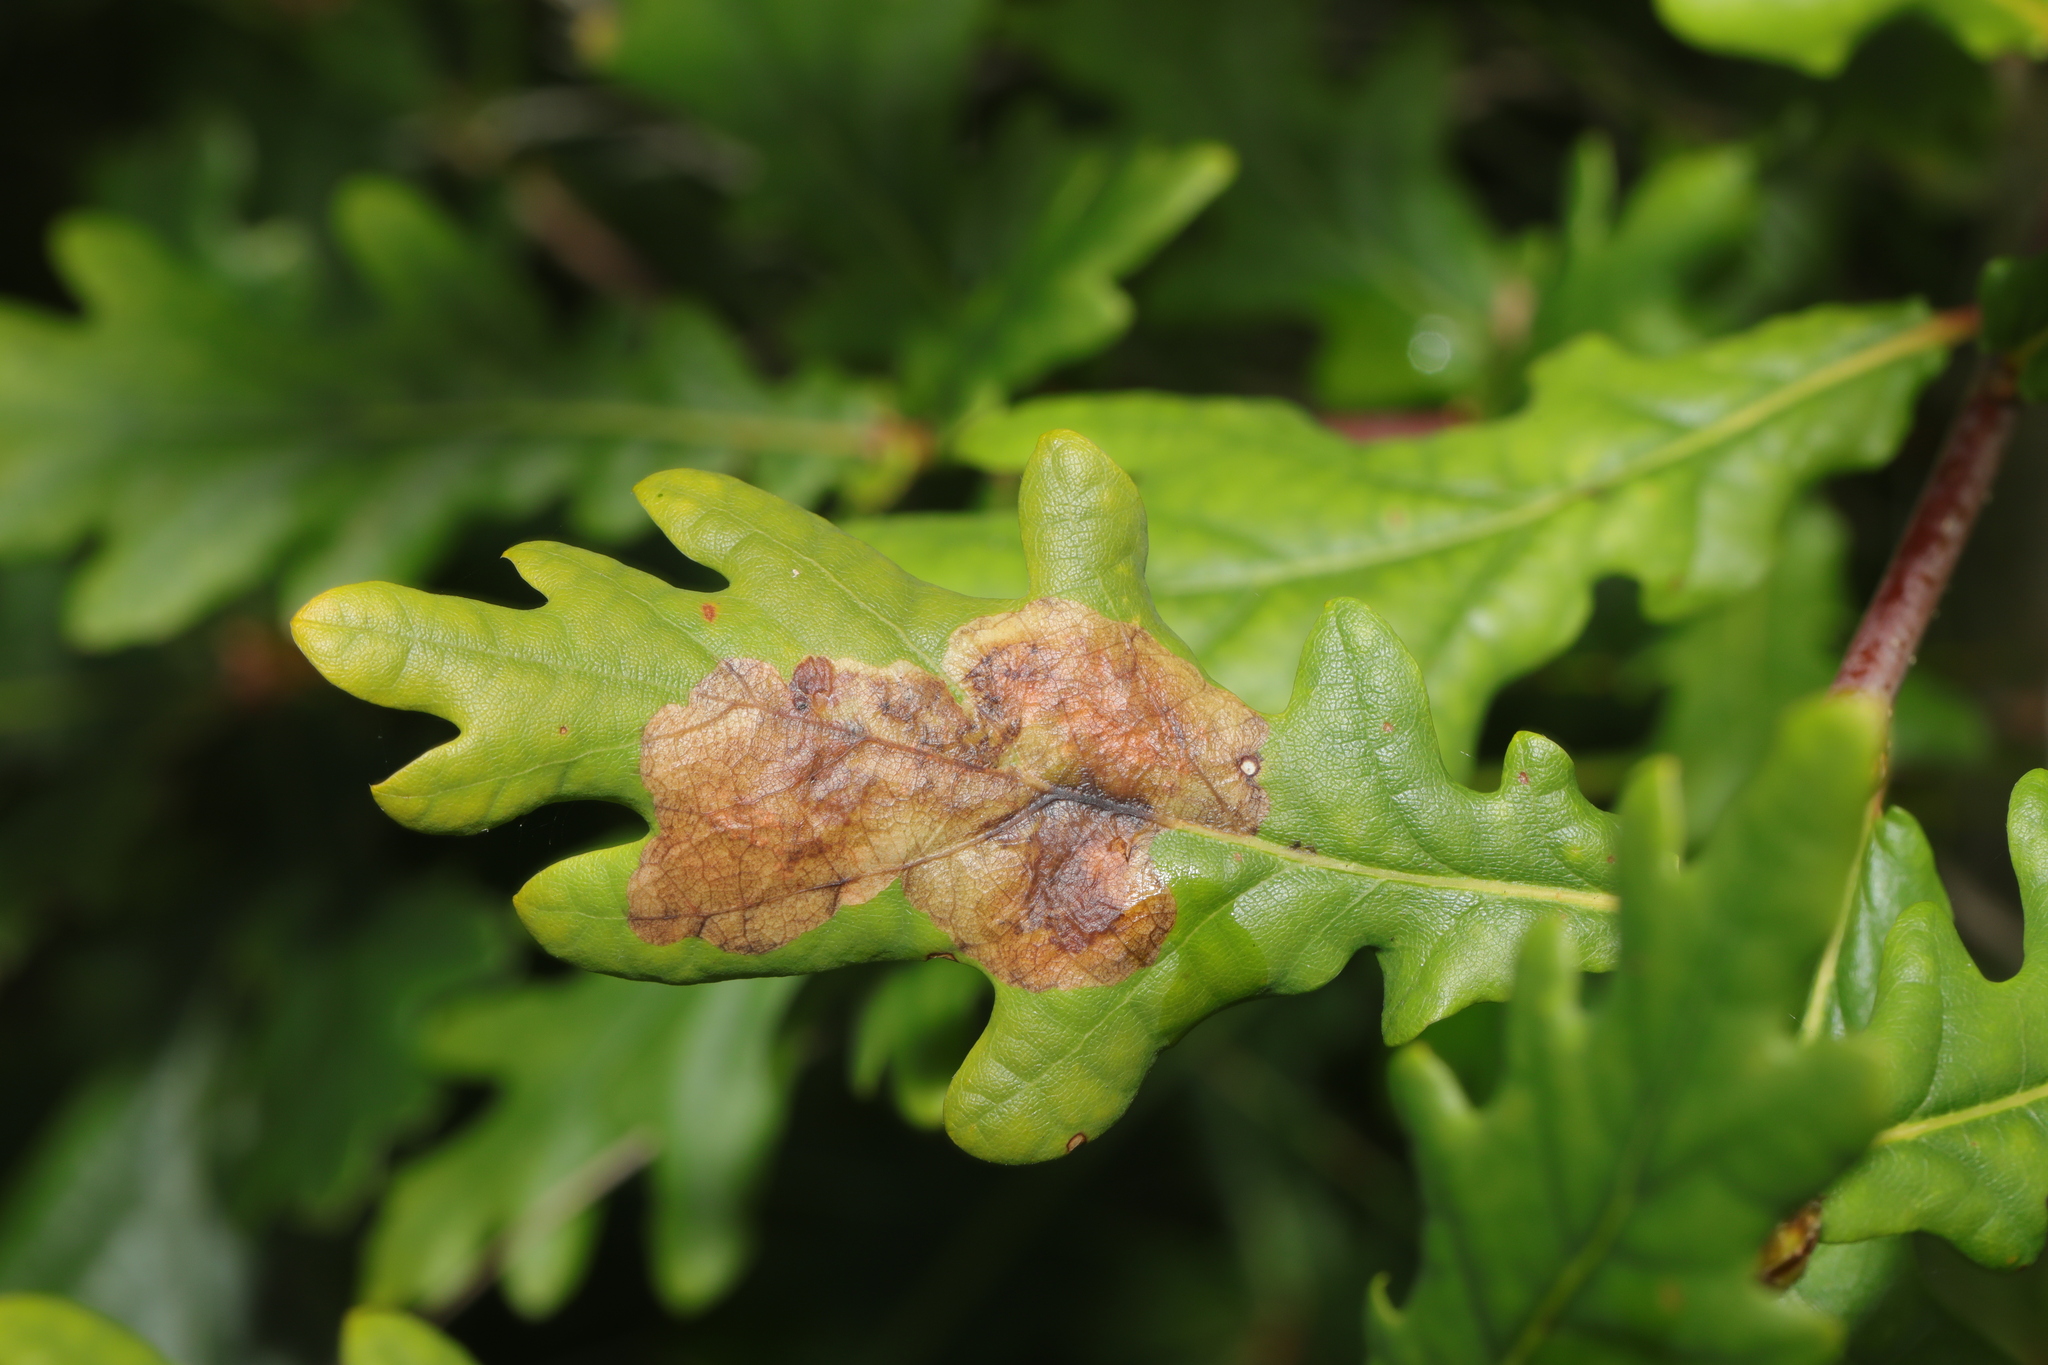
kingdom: Plantae
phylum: Tracheophyta
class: Magnoliopsida
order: Fagales
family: Fagaceae
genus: Quercus
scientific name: Quercus robur
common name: Pedunculate oak
